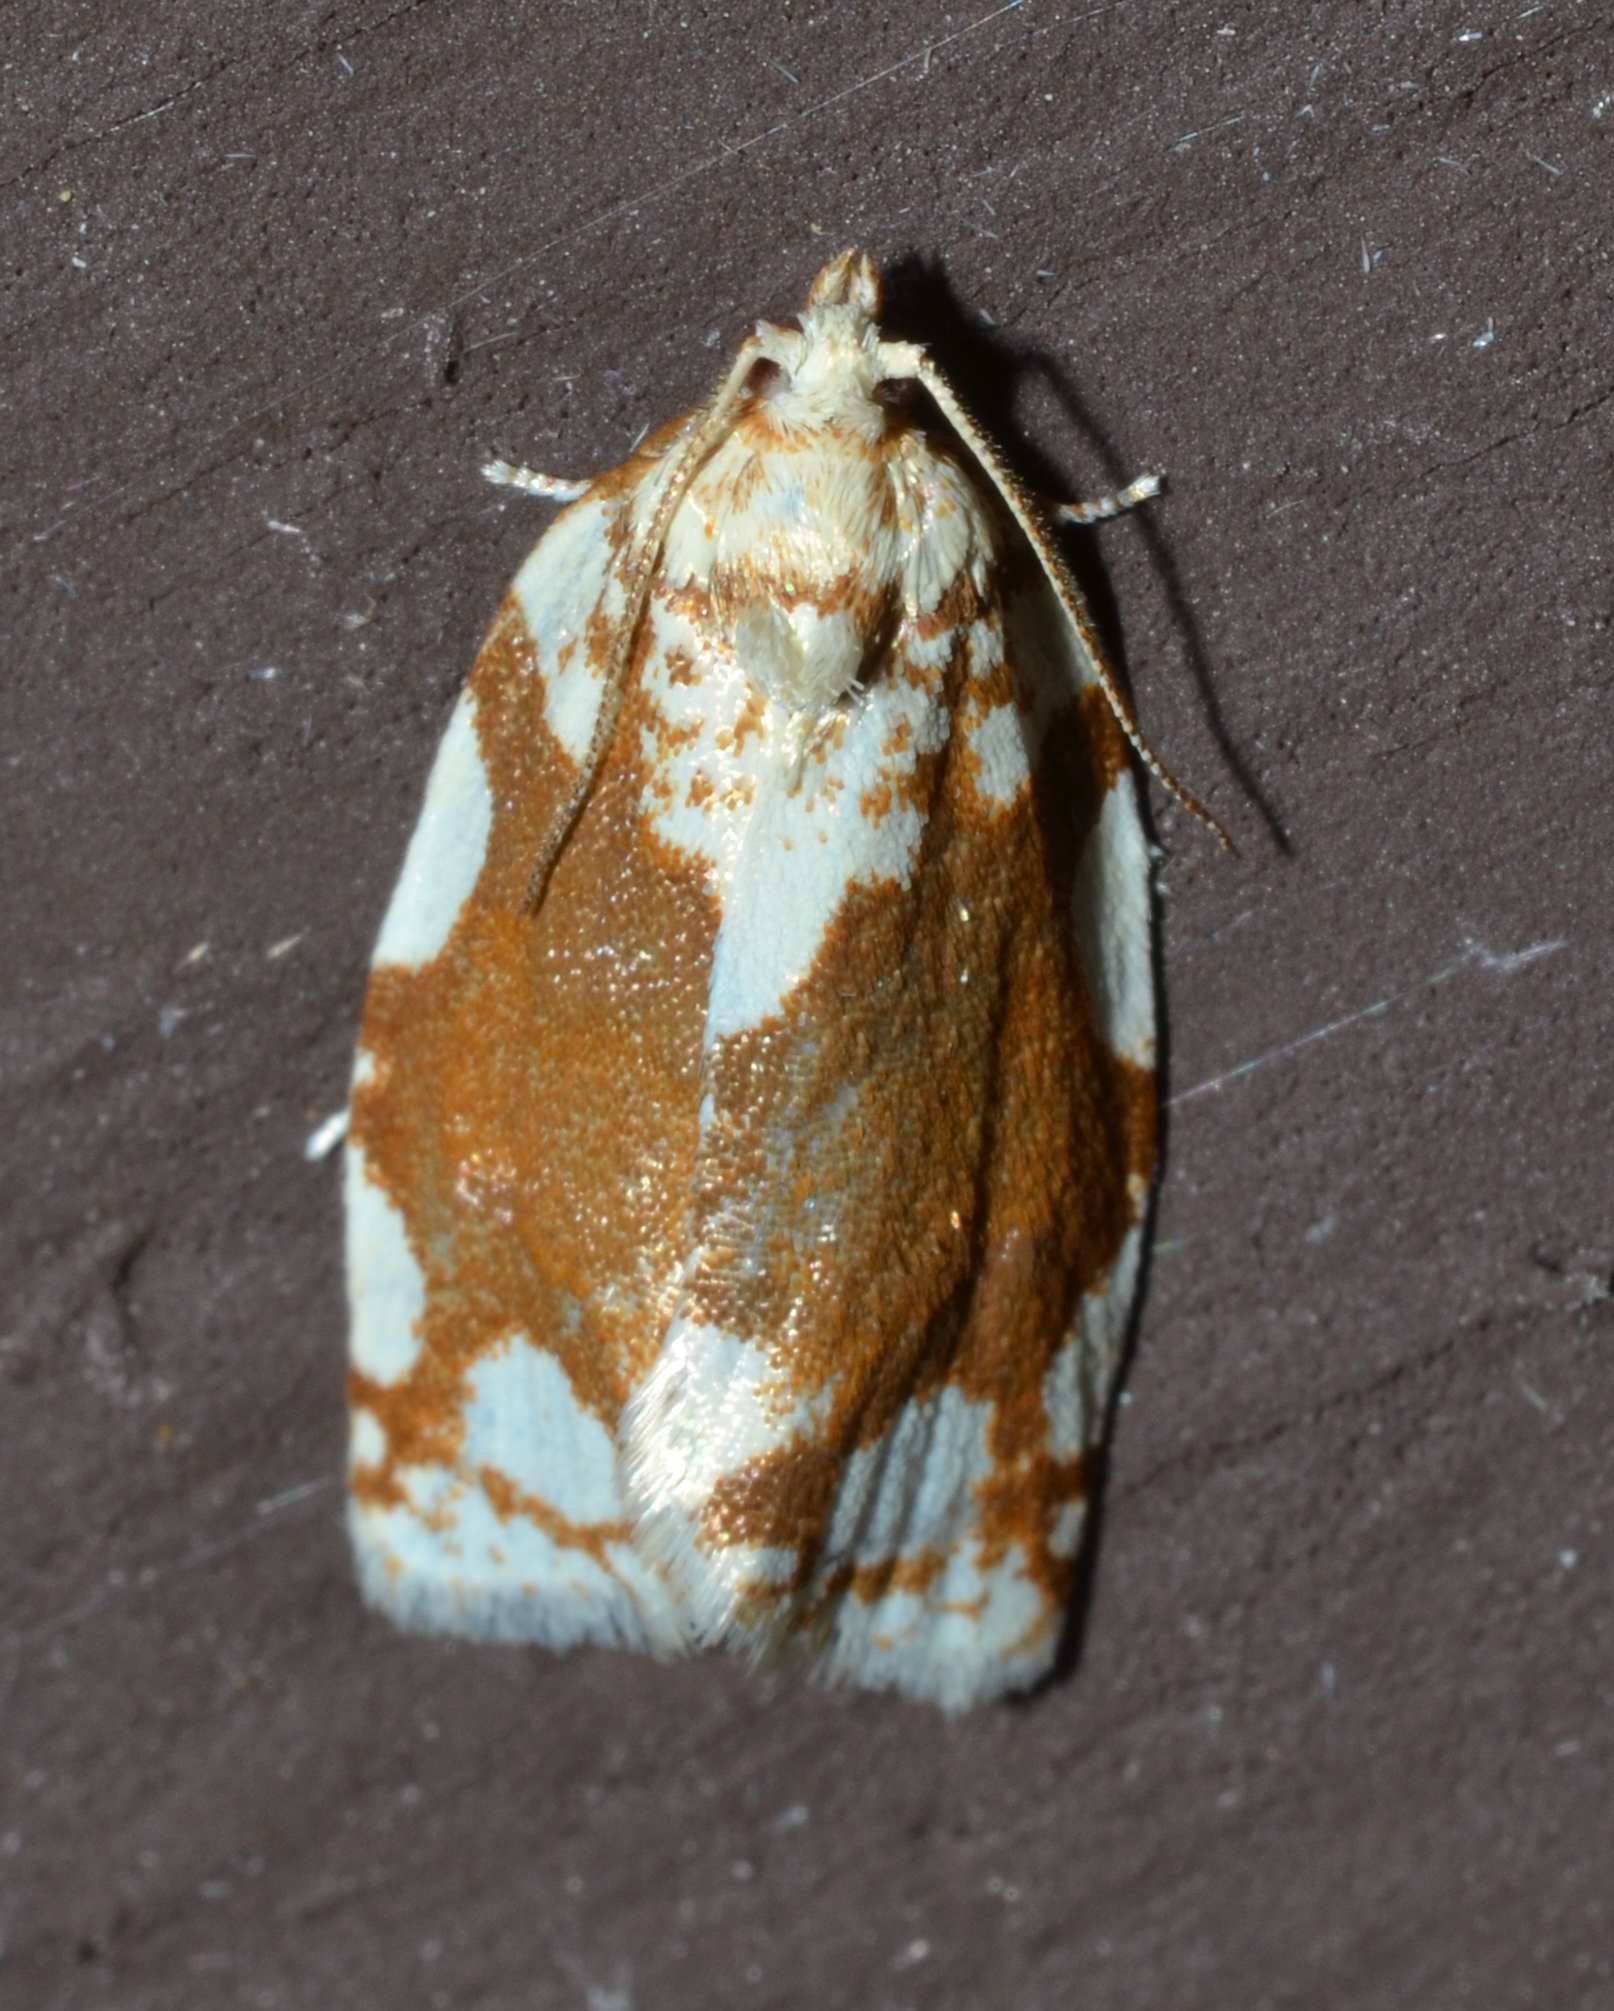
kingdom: Animalia
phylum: Arthropoda
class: Insecta
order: Lepidoptera
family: Tortricidae
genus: Argyrotaenia
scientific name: Argyrotaenia alisellana
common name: White-spotted leafroller moth
